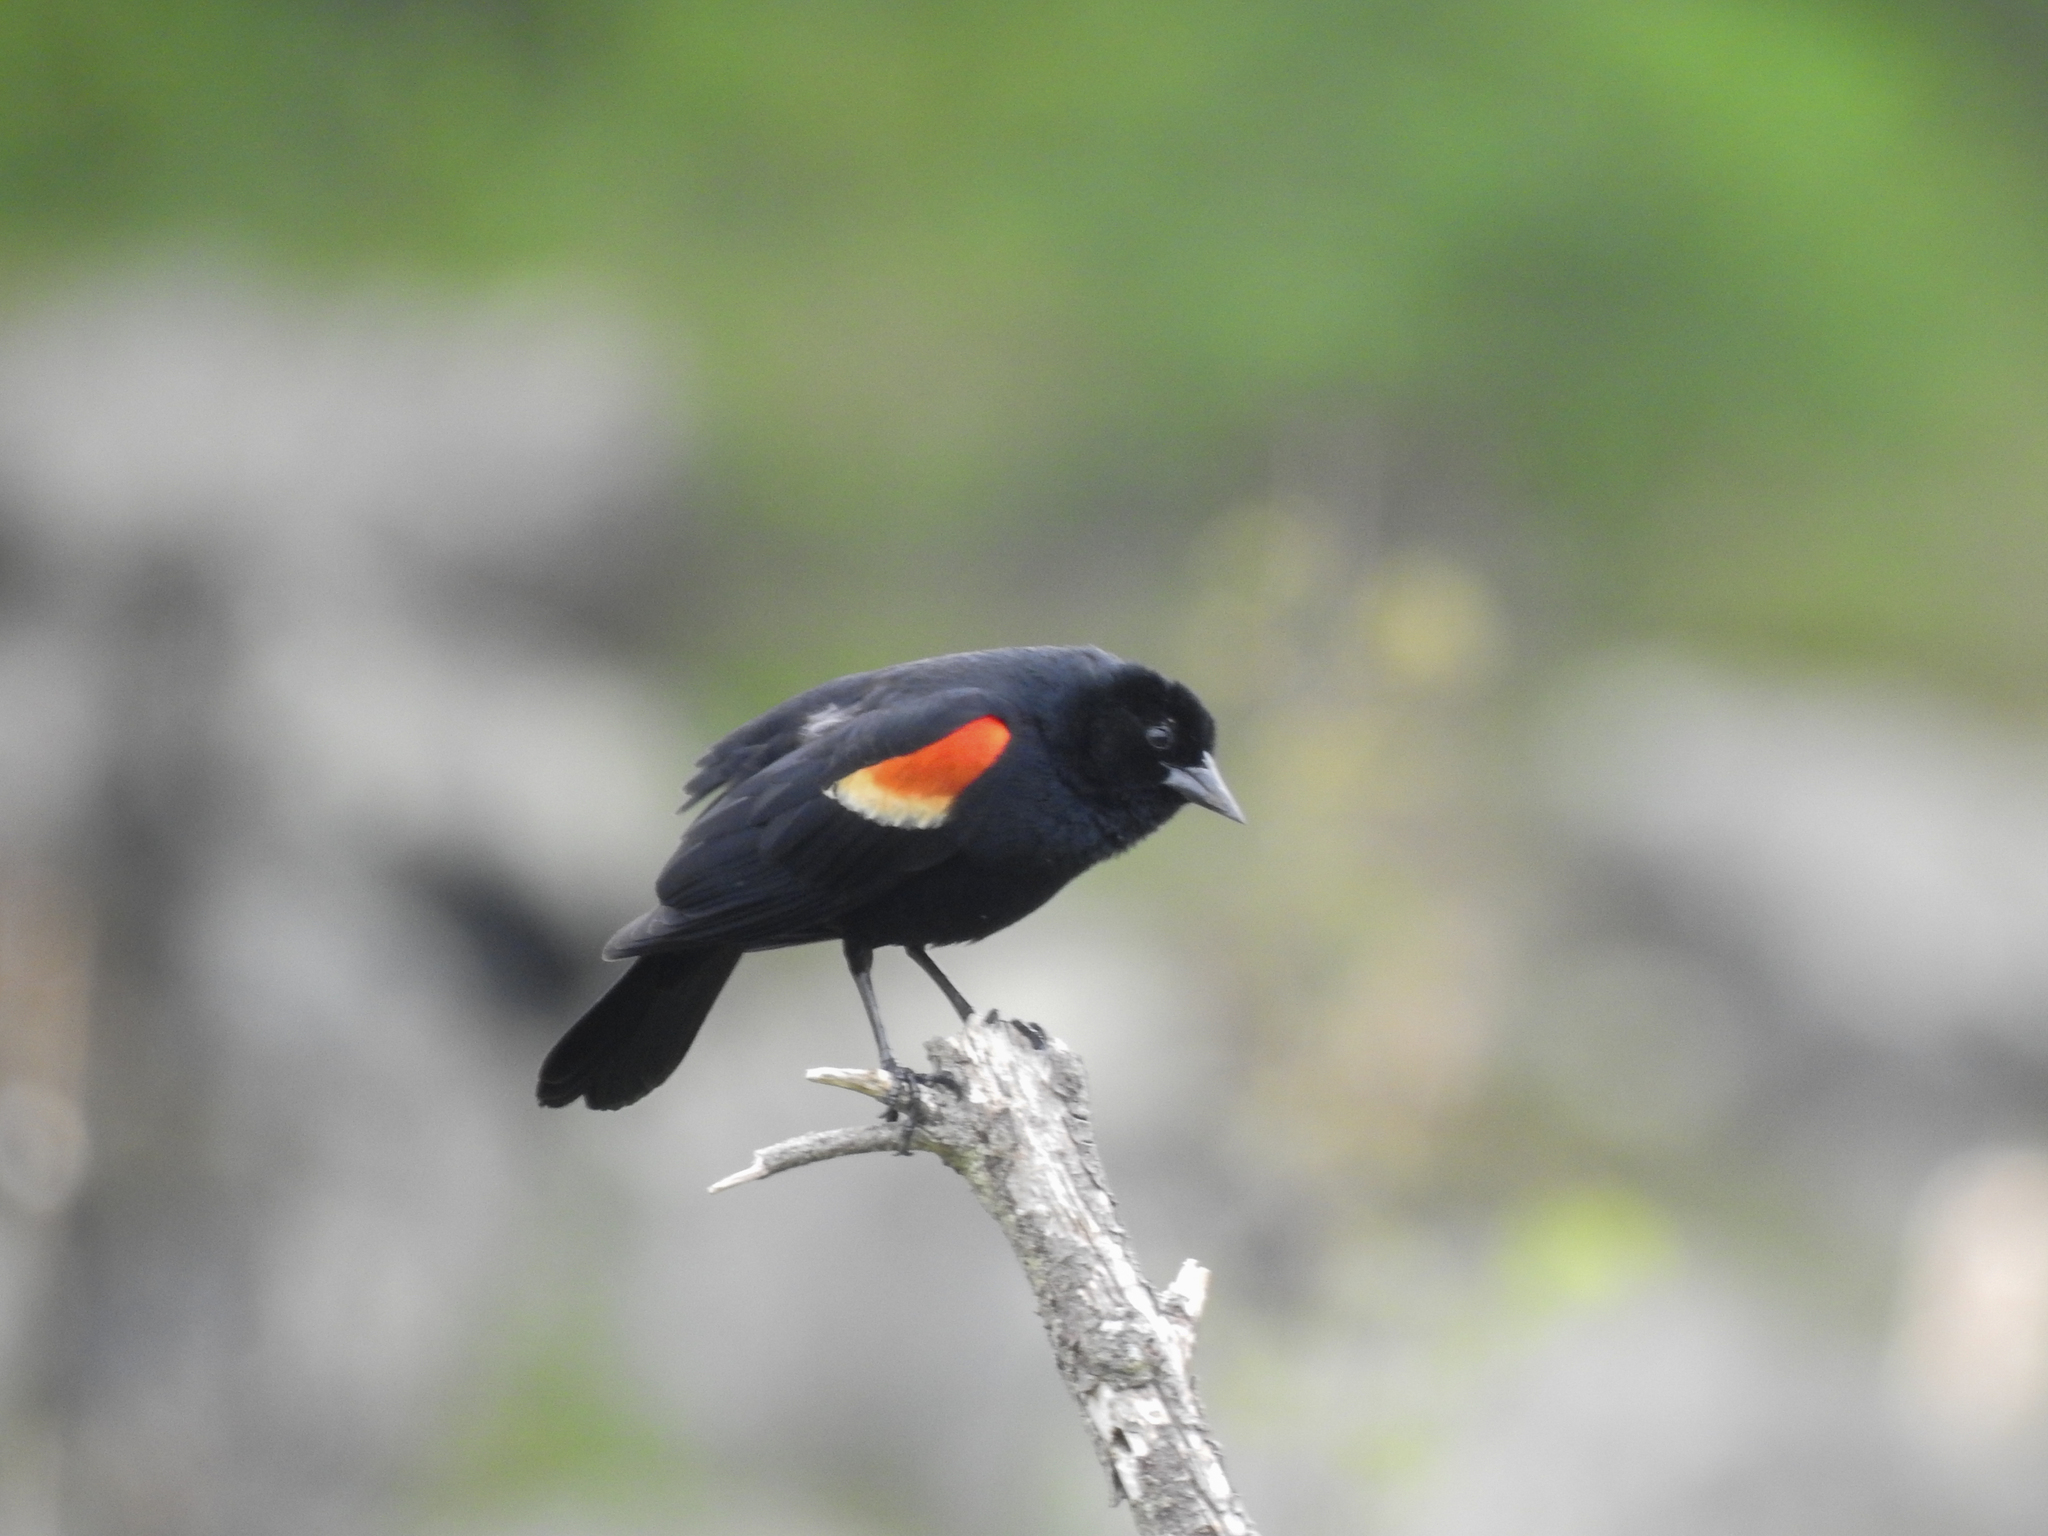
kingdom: Animalia
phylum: Chordata
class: Aves
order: Passeriformes
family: Icteridae
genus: Agelaius
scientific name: Agelaius phoeniceus
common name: Red-winged blackbird
